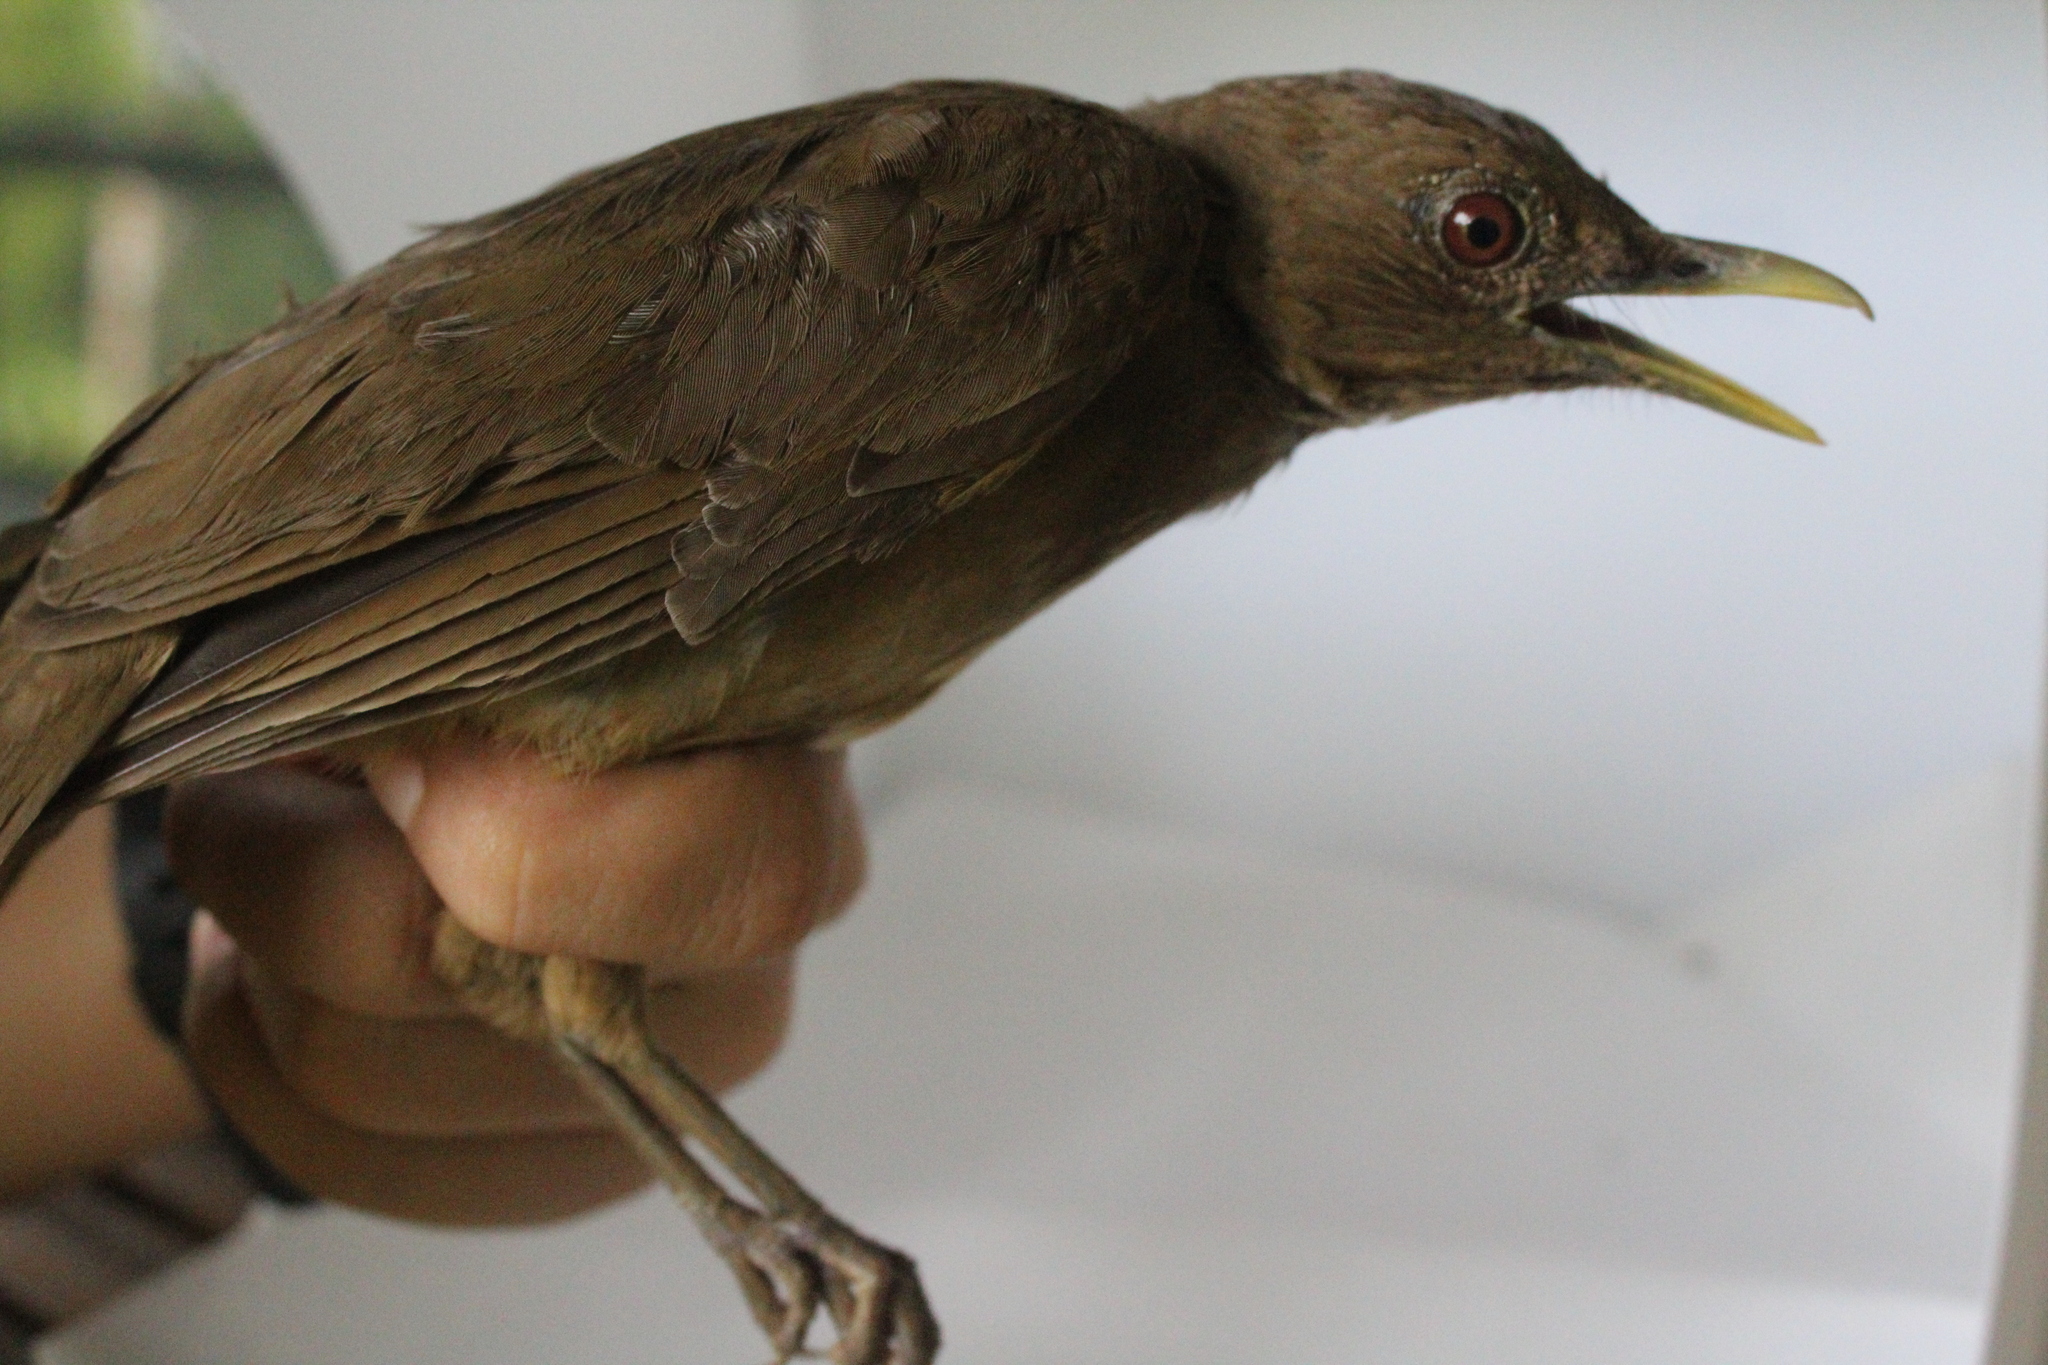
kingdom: Animalia
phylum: Chordata
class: Aves
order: Passeriformes
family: Turdidae
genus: Turdus
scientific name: Turdus grayi
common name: Clay-colored thrush
